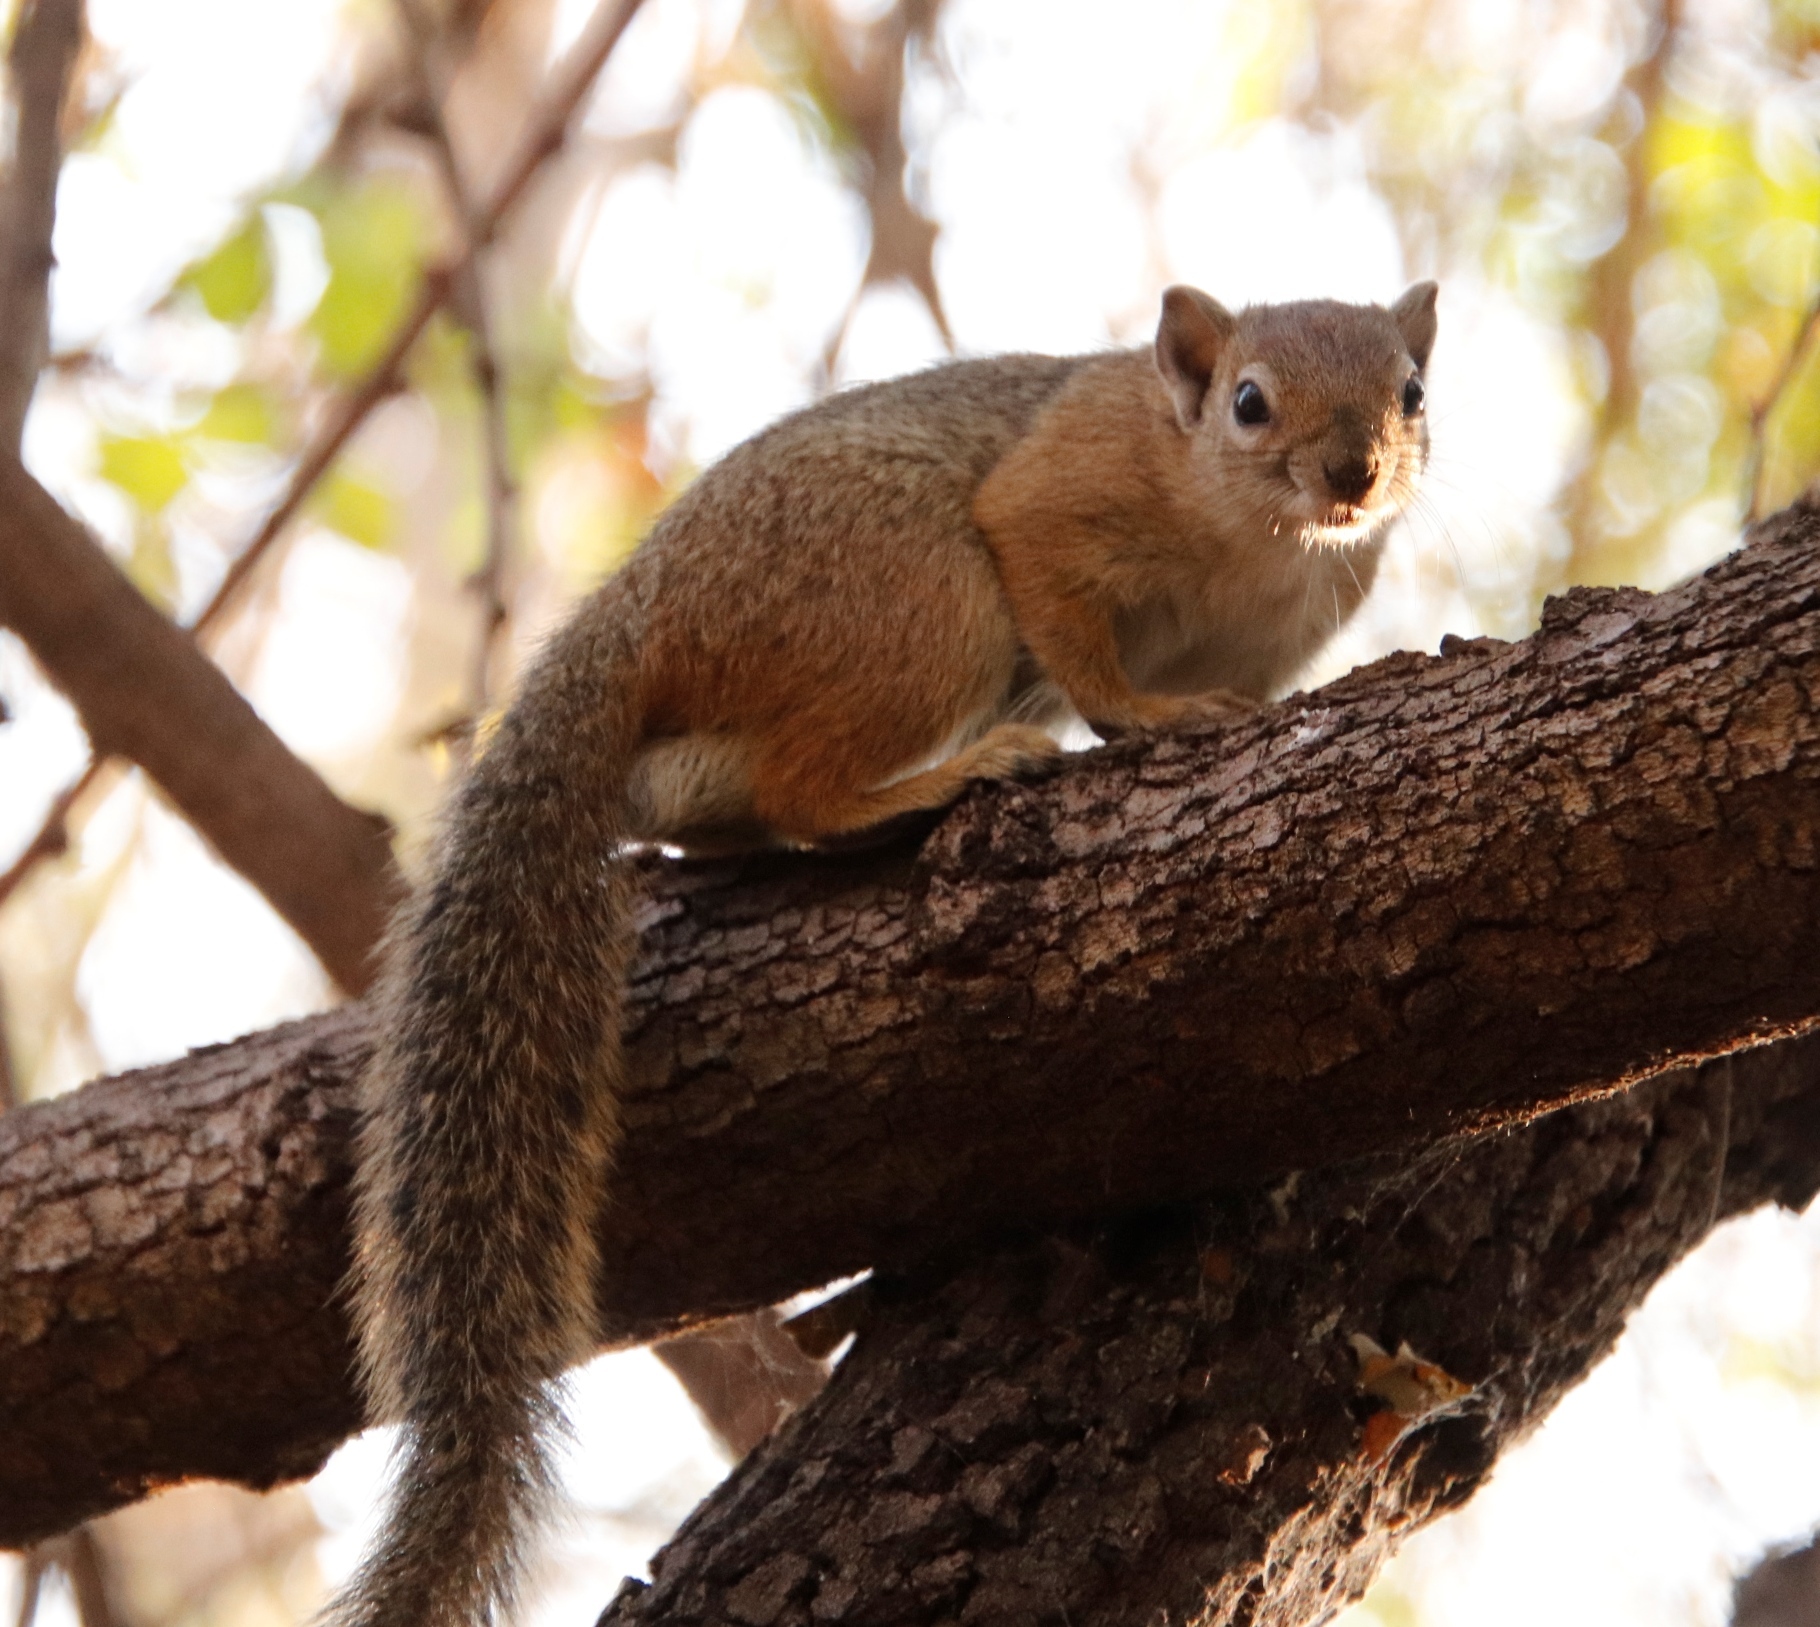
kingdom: Animalia
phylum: Chordata
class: Mammalia
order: Rodentia
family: Sciuridae
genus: Paraxerus
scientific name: Paraxerus cepapi
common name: Smith's bush squirrel
